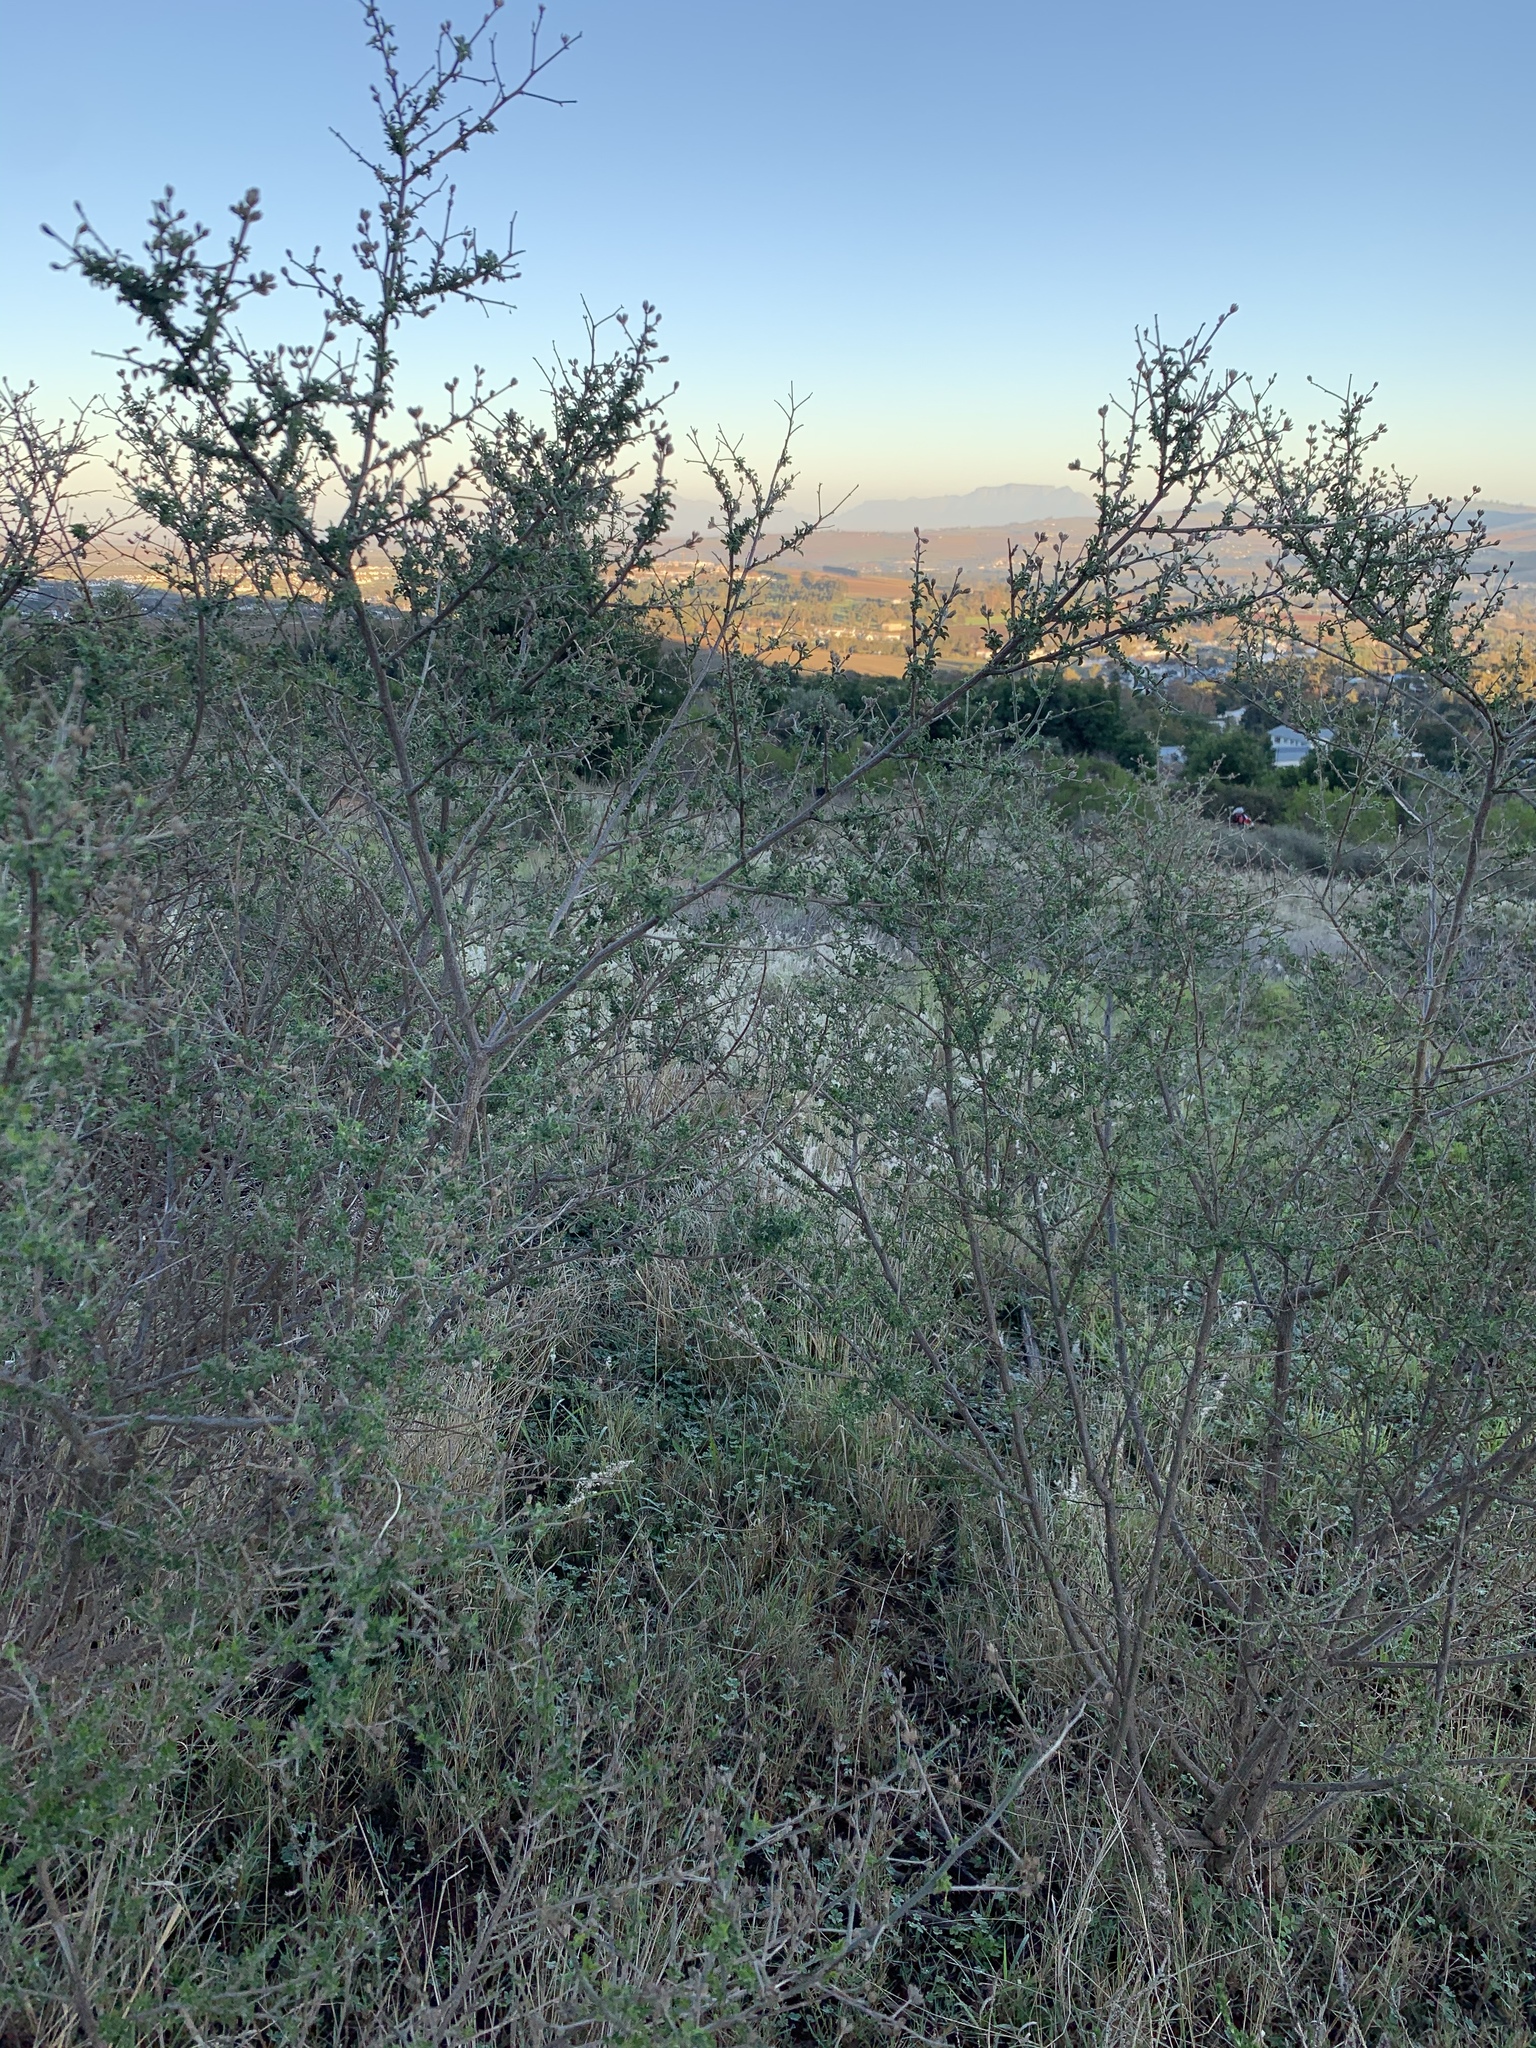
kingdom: Plantae
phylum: Tracheophyta
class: Magnoliopsida
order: Fabales
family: Fabaceae
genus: Psoralea
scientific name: Psoralea hirta
